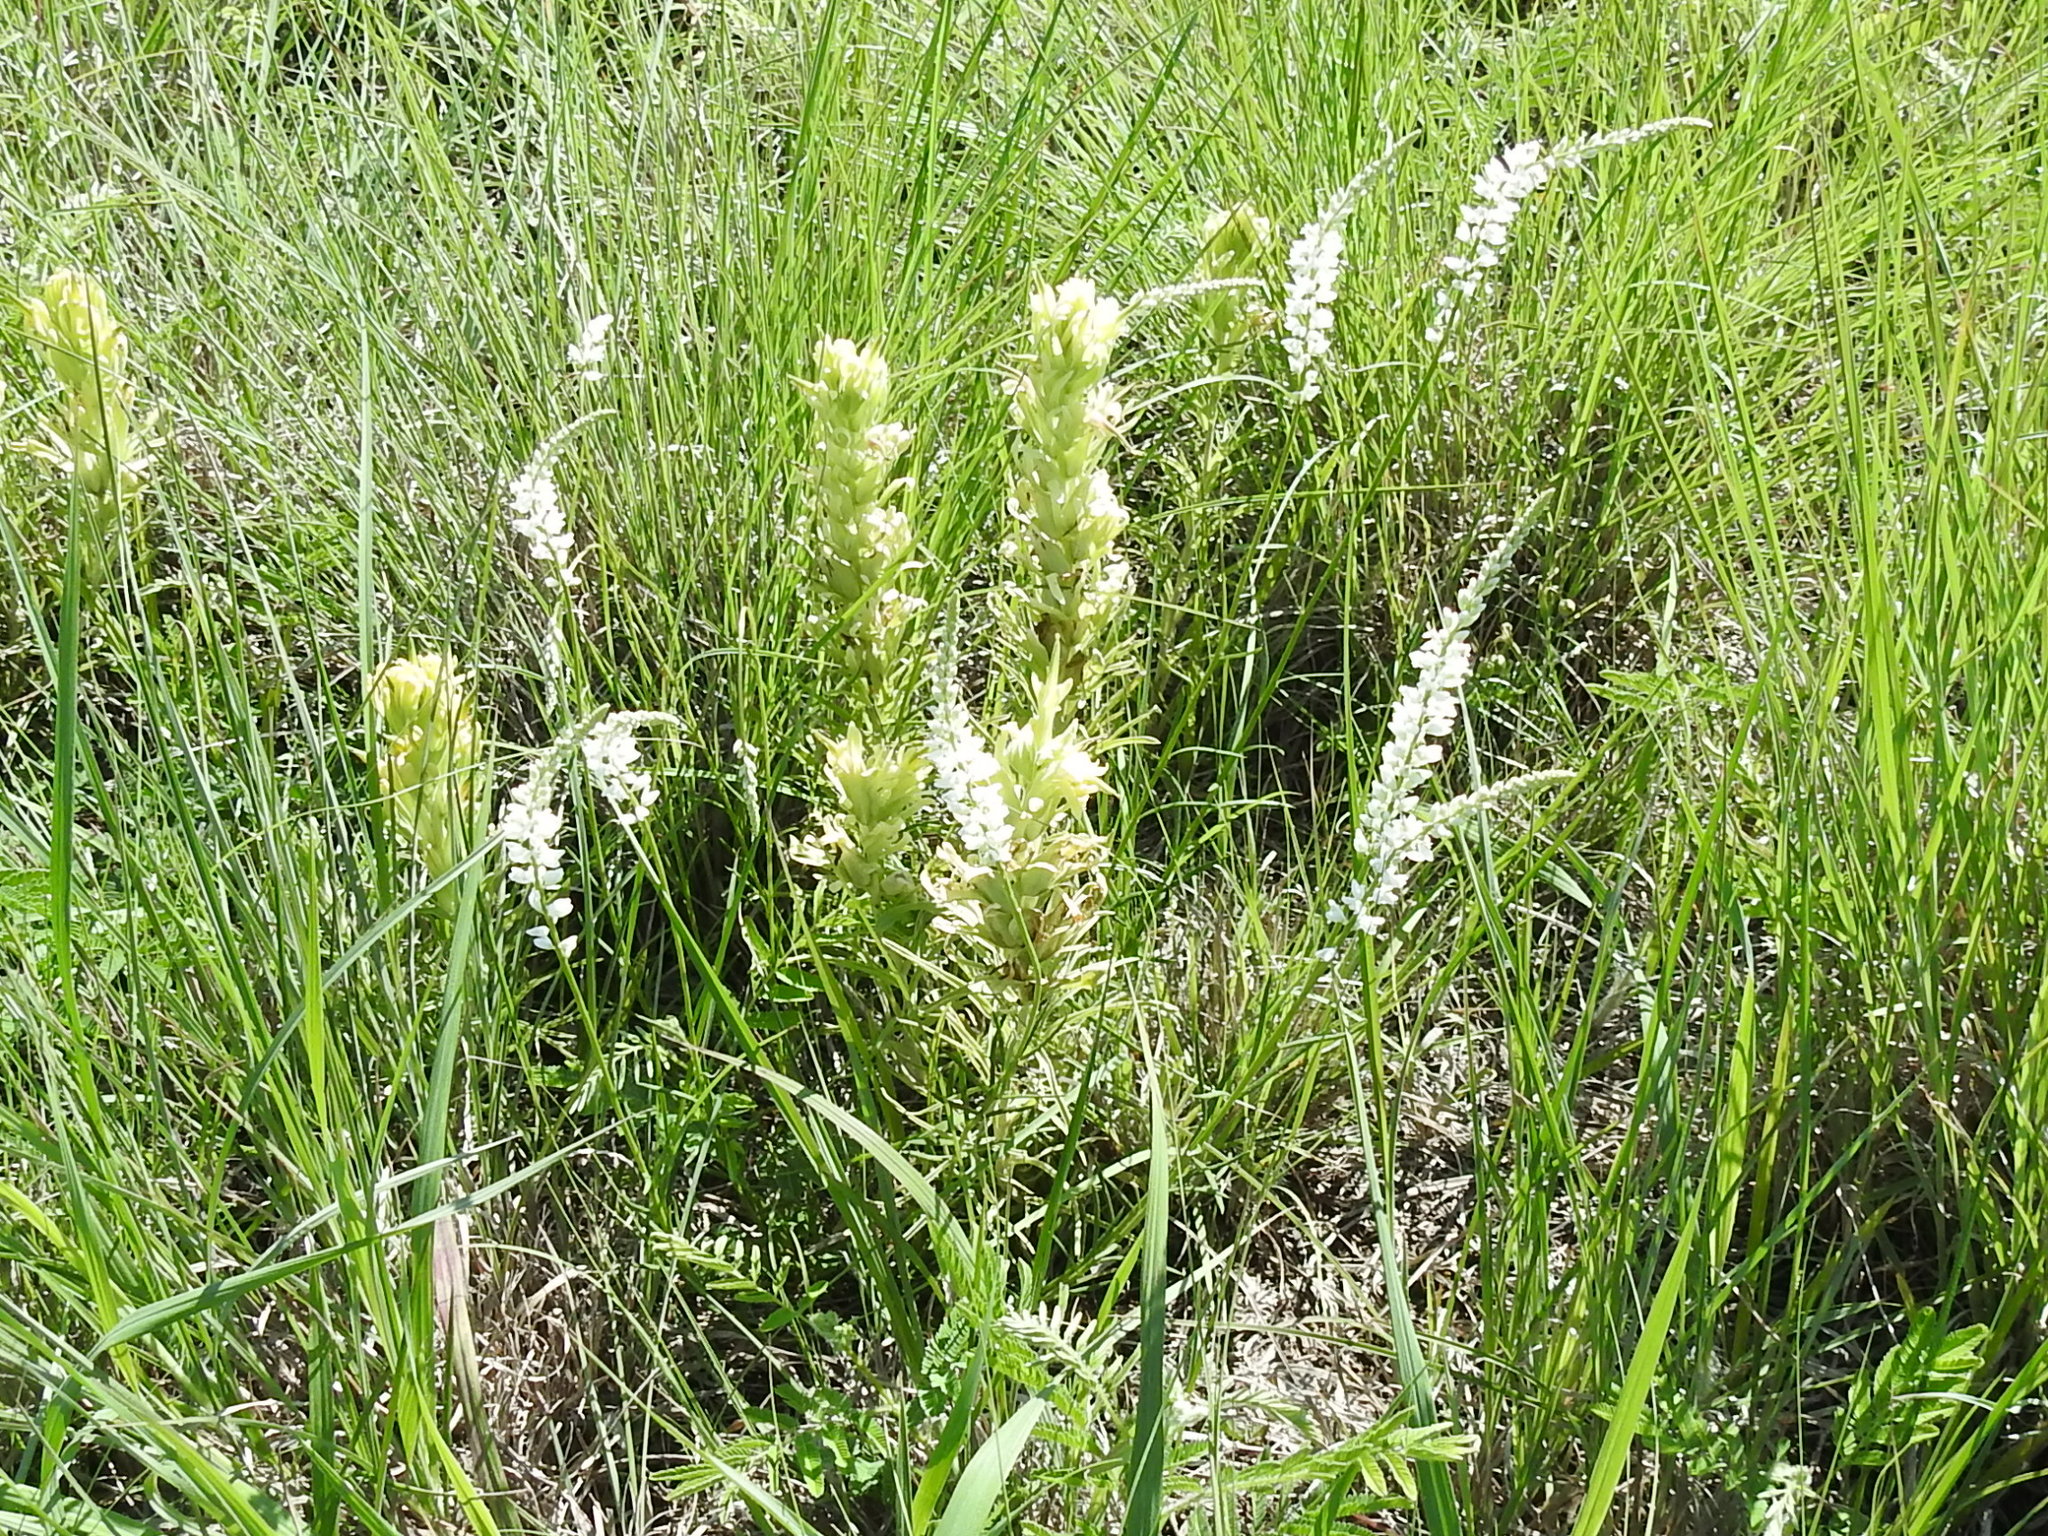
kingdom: Plantae
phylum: Tracheophyta
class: Magnoliopsida
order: Fabales
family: Polygalaceae
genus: Polygala
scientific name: Polygala alba
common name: White milkwort
